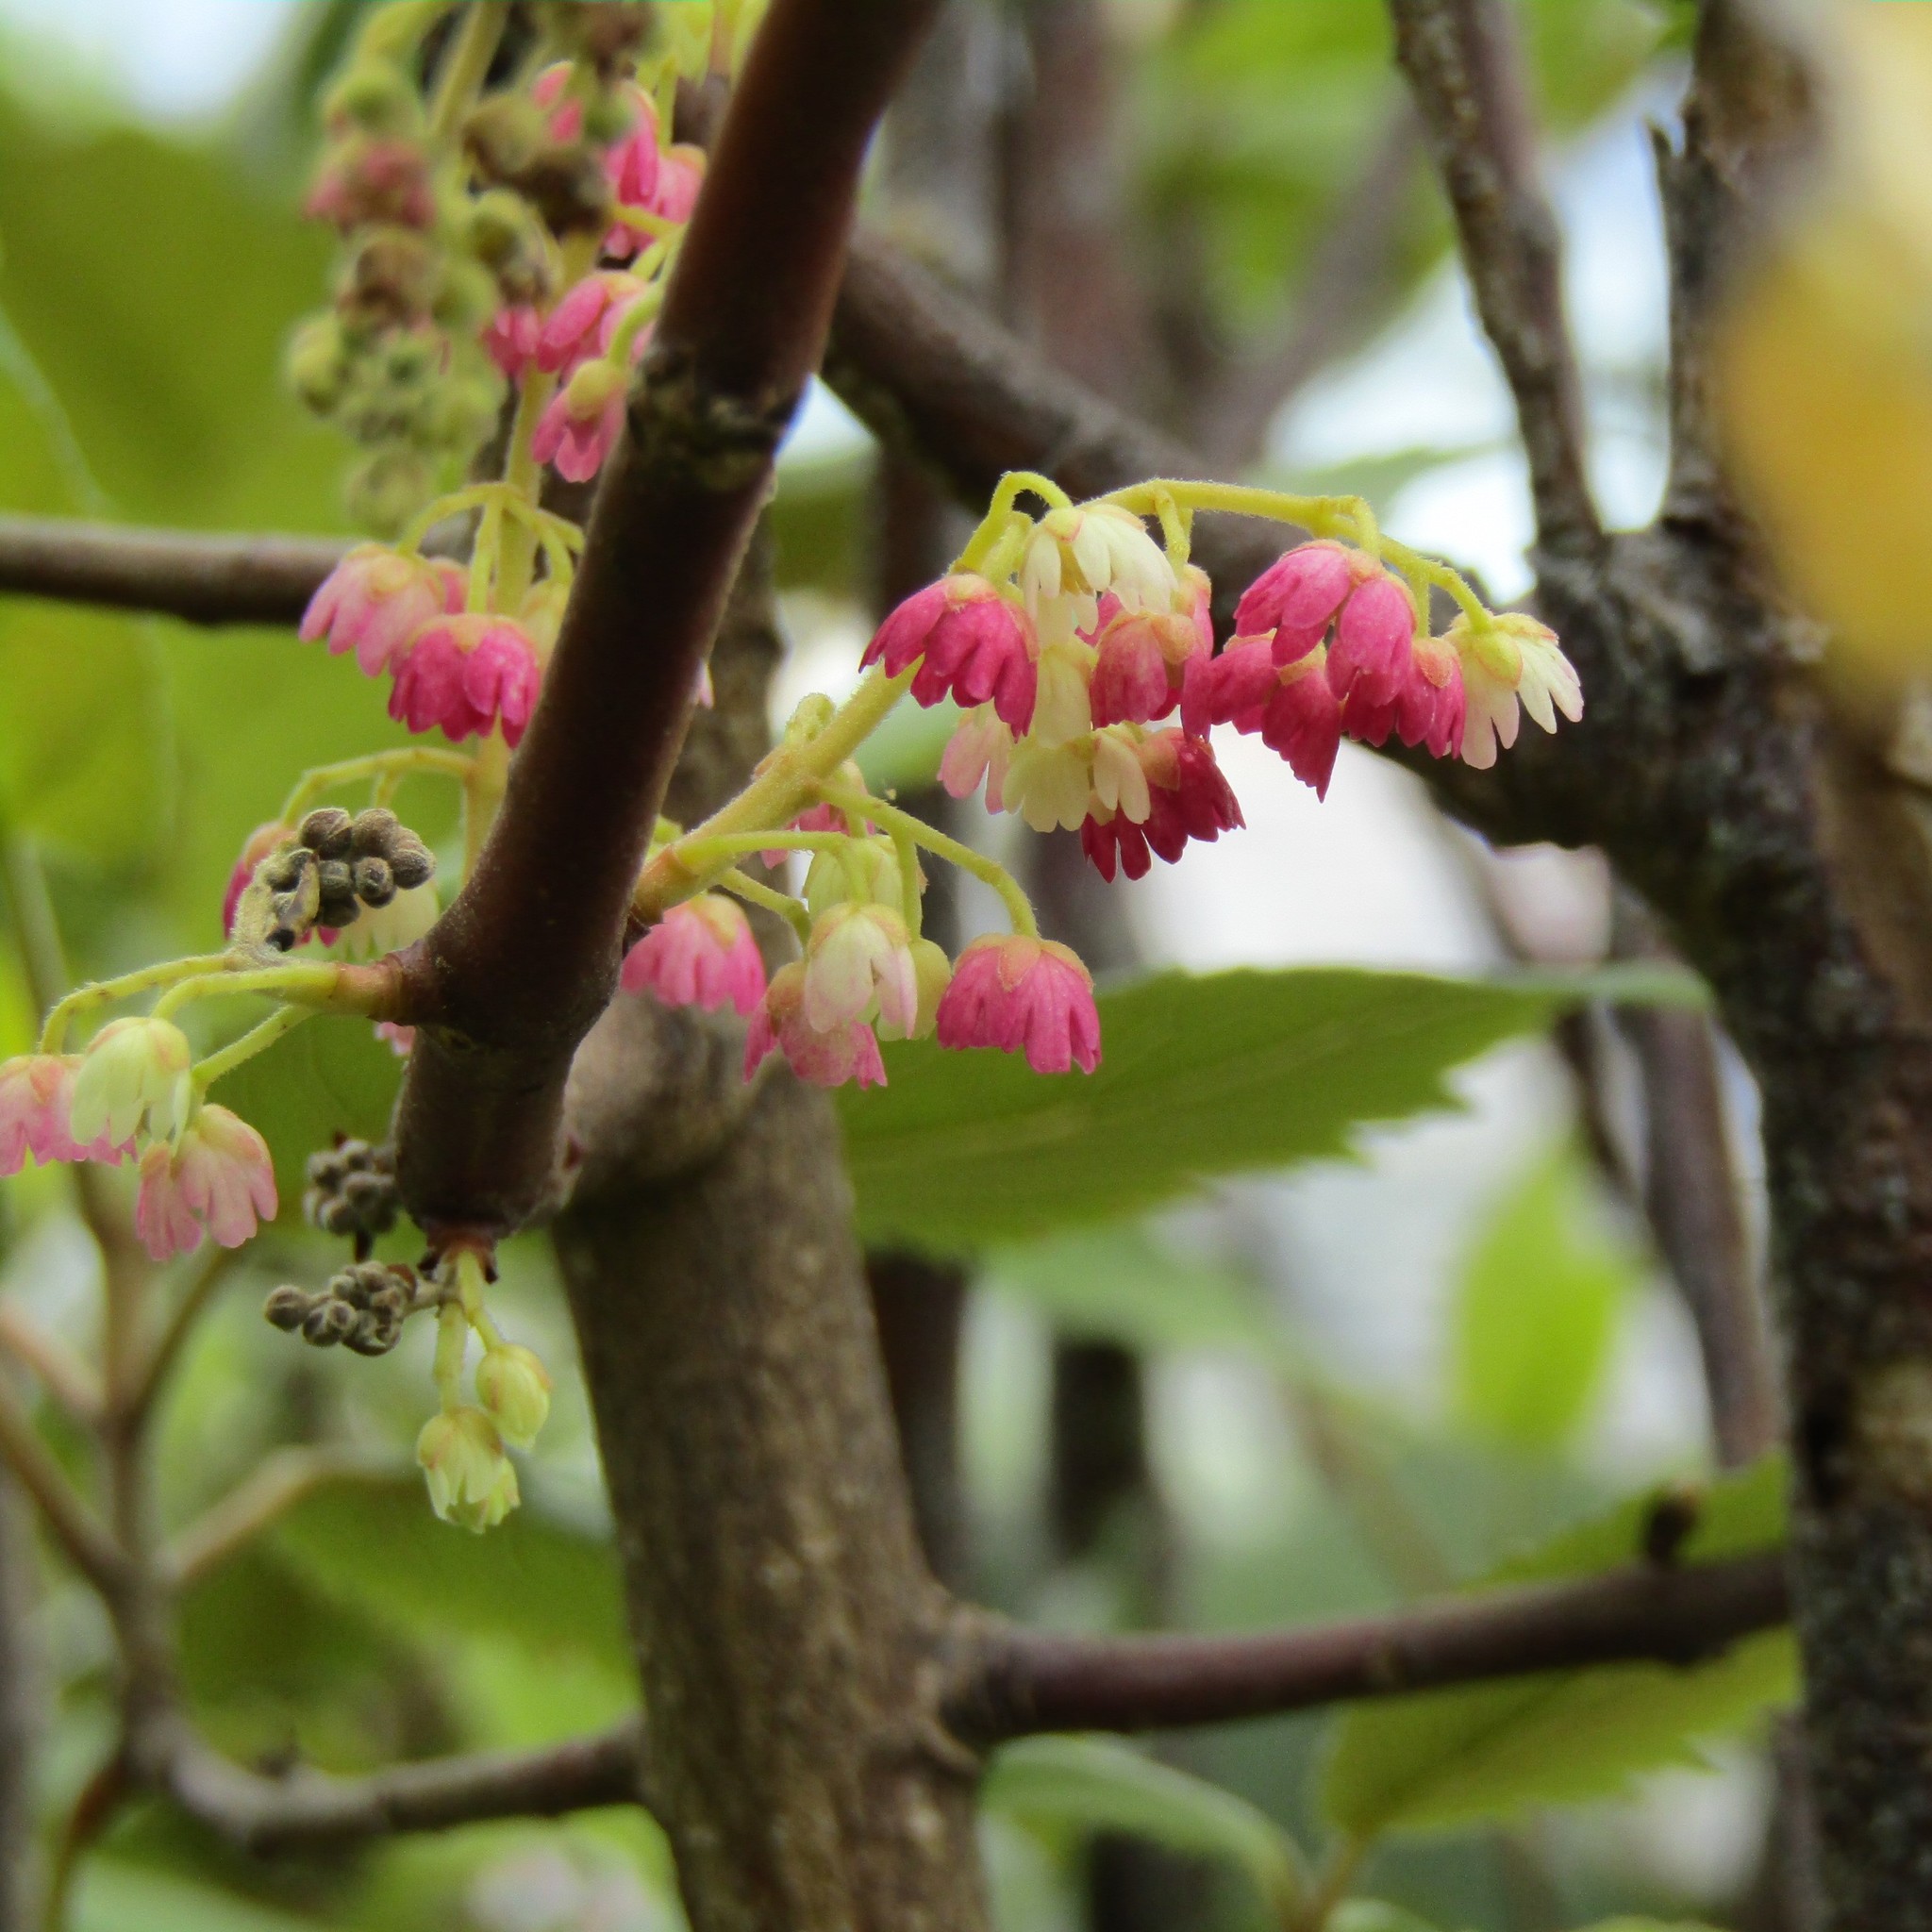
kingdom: Plantae
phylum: Tracheophyta
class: Magnoliopsida
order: Oxalidales
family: Elaeocarpaceae
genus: Aristotelia
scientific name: Aristotelia serrata
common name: New zealand wineberry
